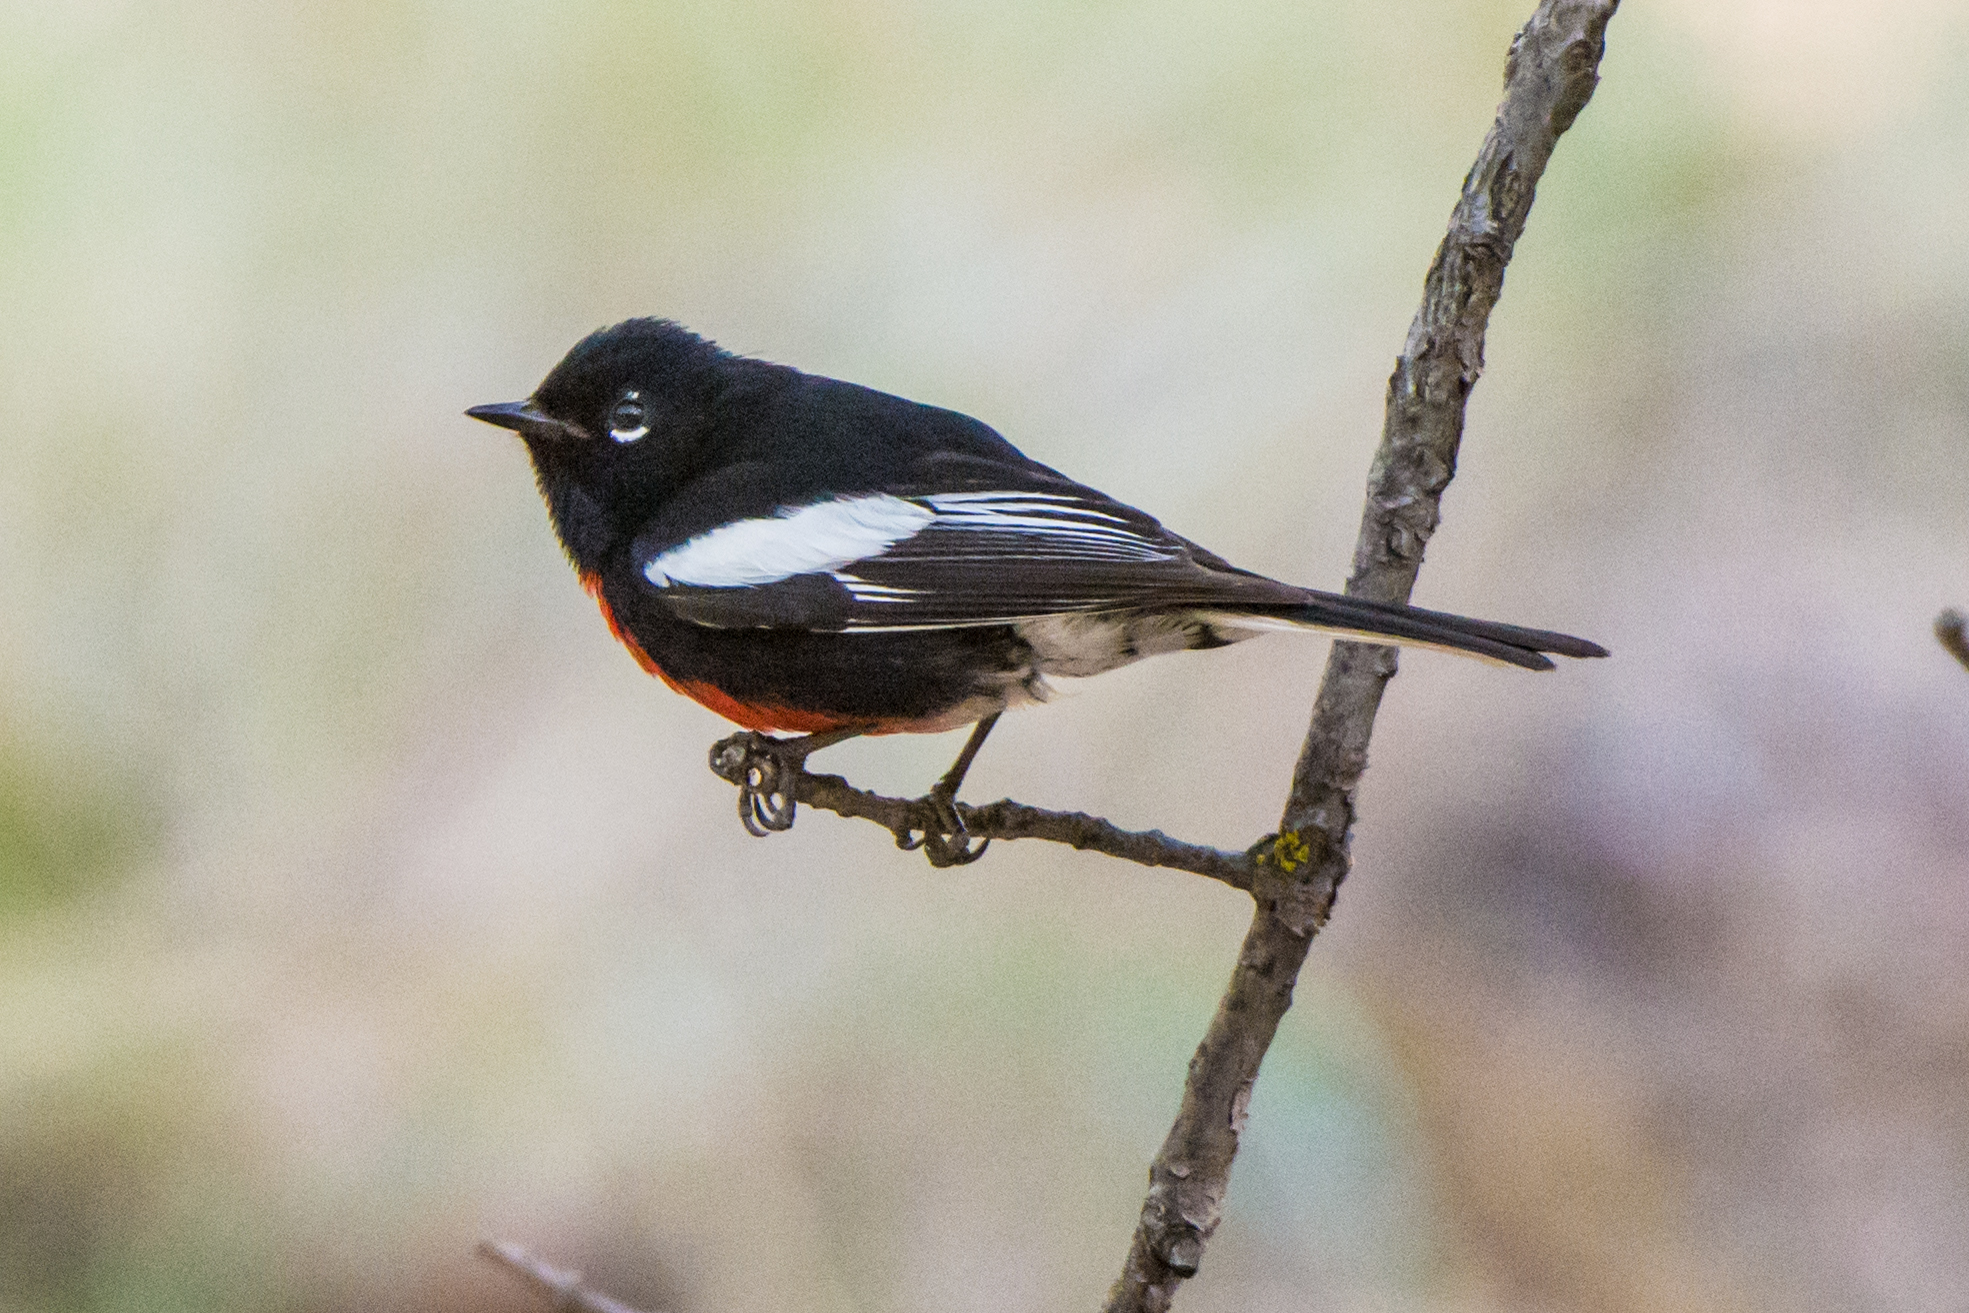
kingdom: Animalia
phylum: Chordata
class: Aves
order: Passeriformes
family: Parulidae
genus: Myioborus
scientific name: Myioborus pictus
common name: Painted whitestart
